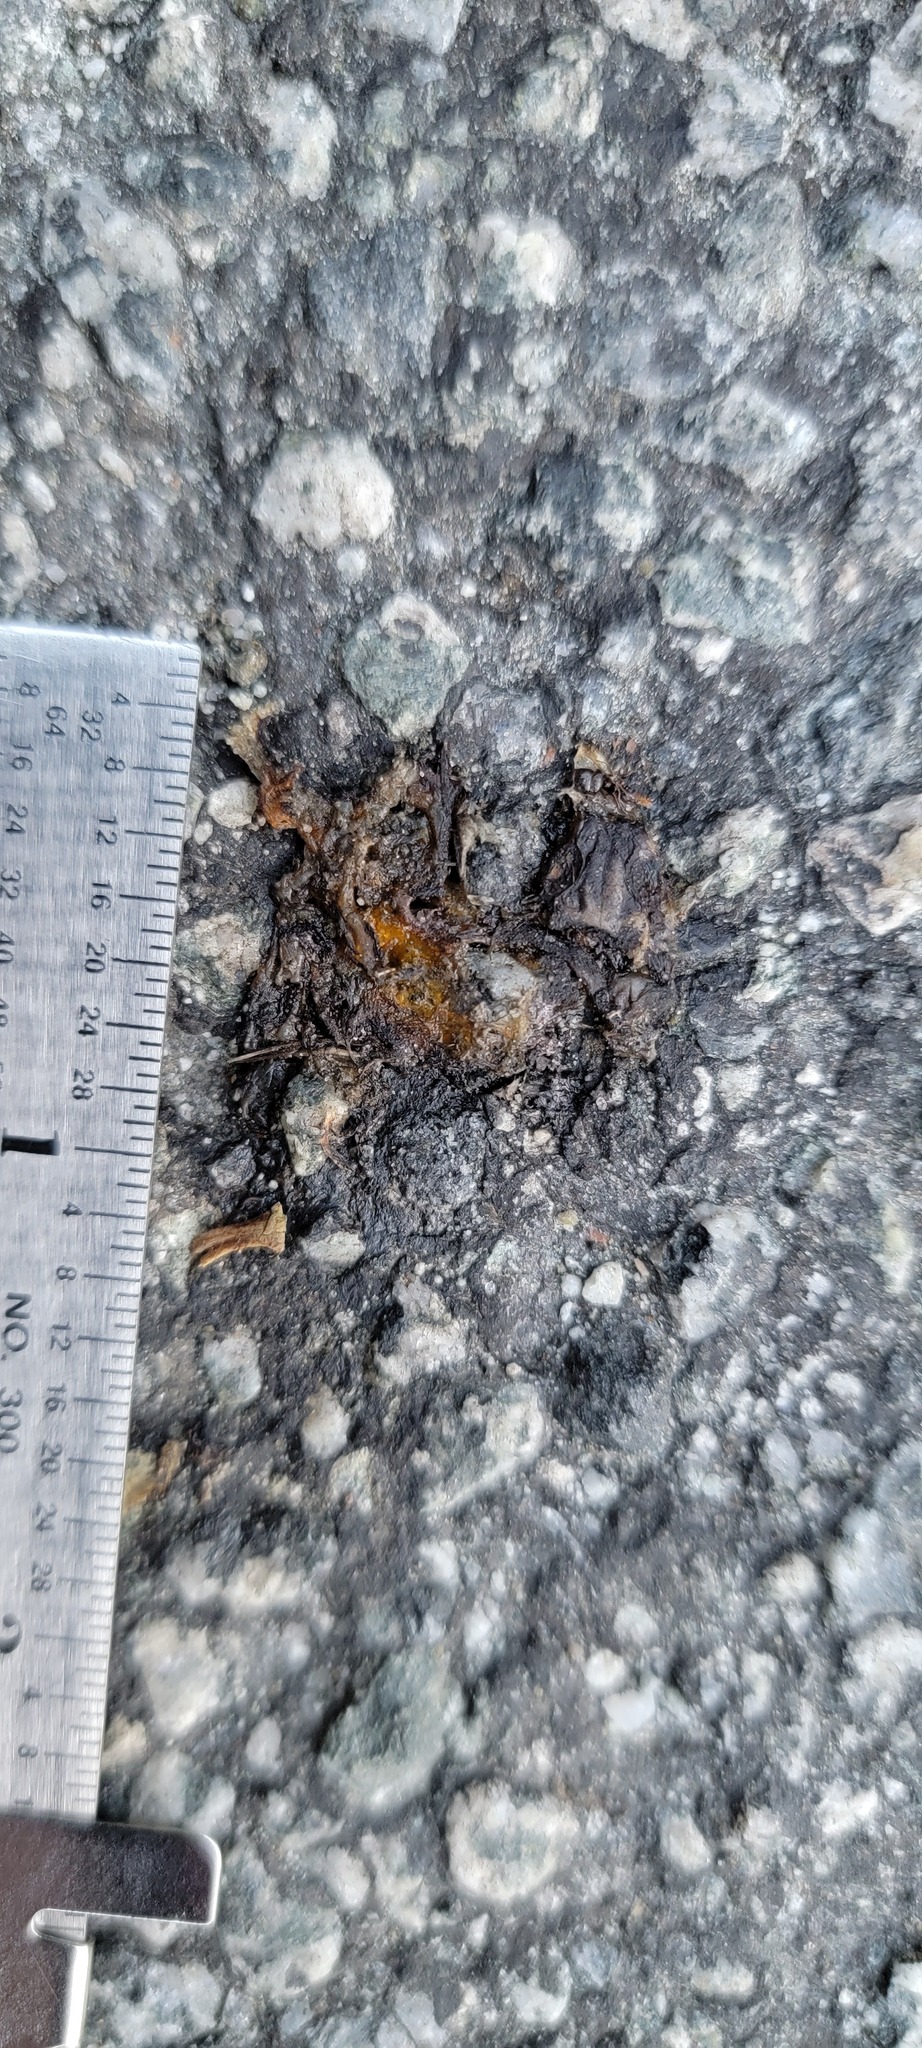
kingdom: Animalia
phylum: Chordata
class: Amphibia
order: Caudata
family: Salamandridae
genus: Taricha
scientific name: Taricha
